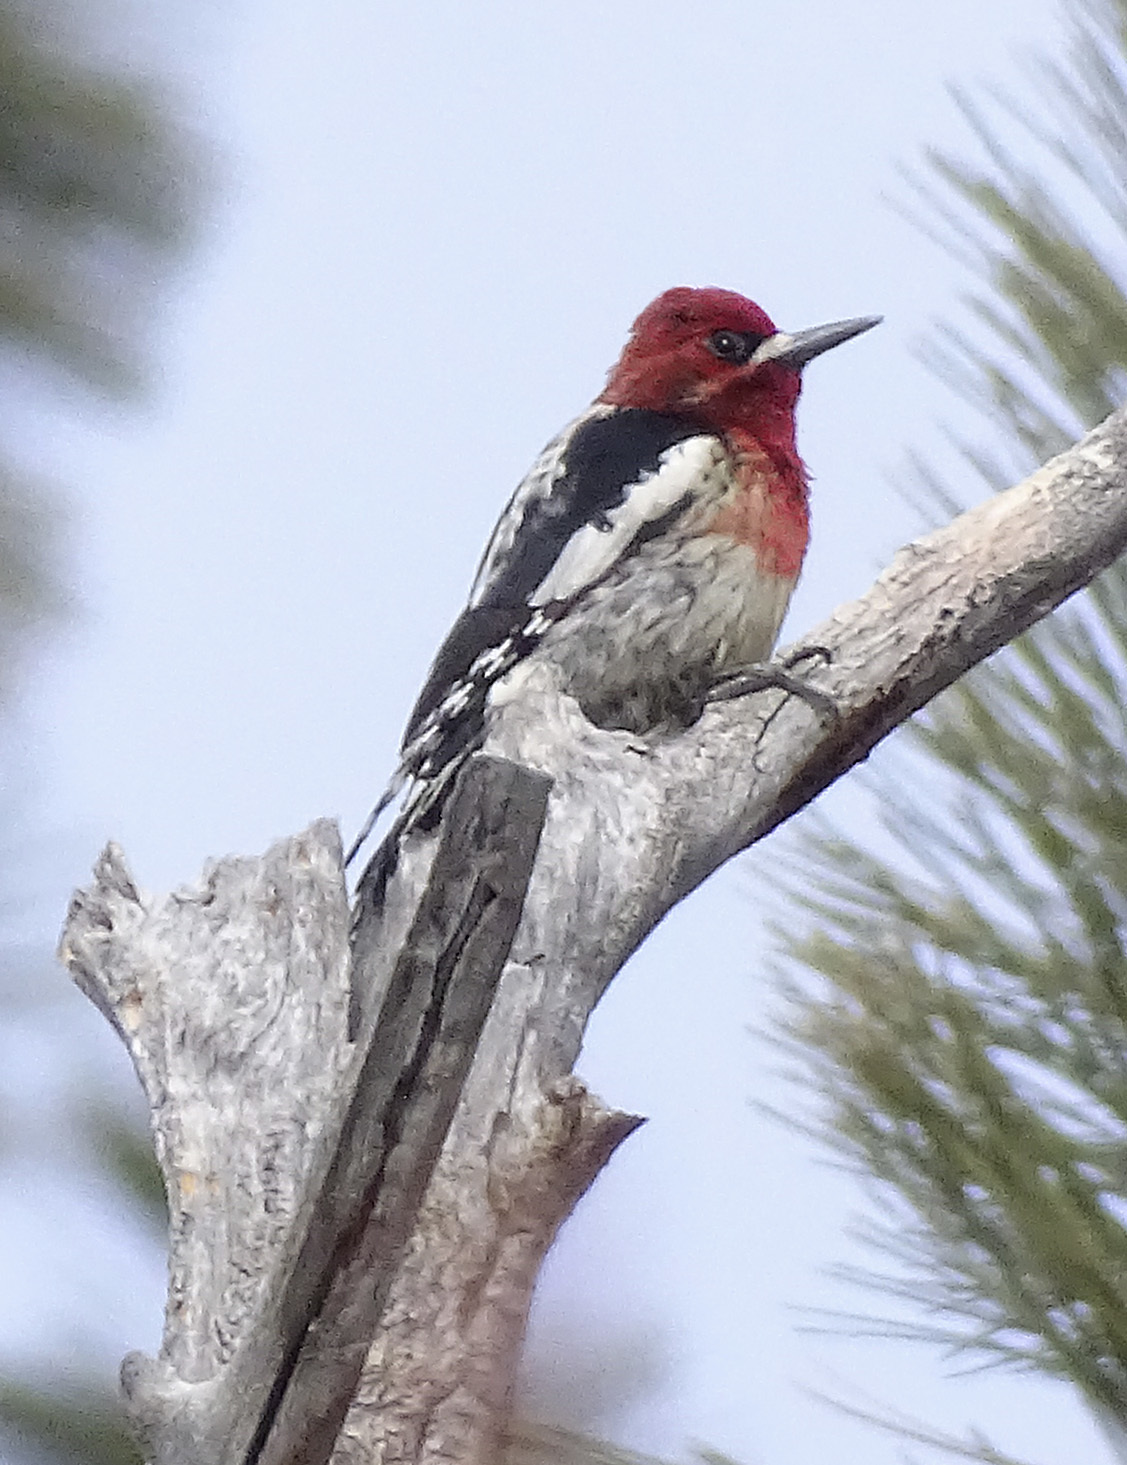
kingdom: Animalia
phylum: Chordata
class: Aves
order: Piciformes
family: Picidae
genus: Sphyrapicus
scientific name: Sphyrapicus ruber
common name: Red-breasted sapsucker
